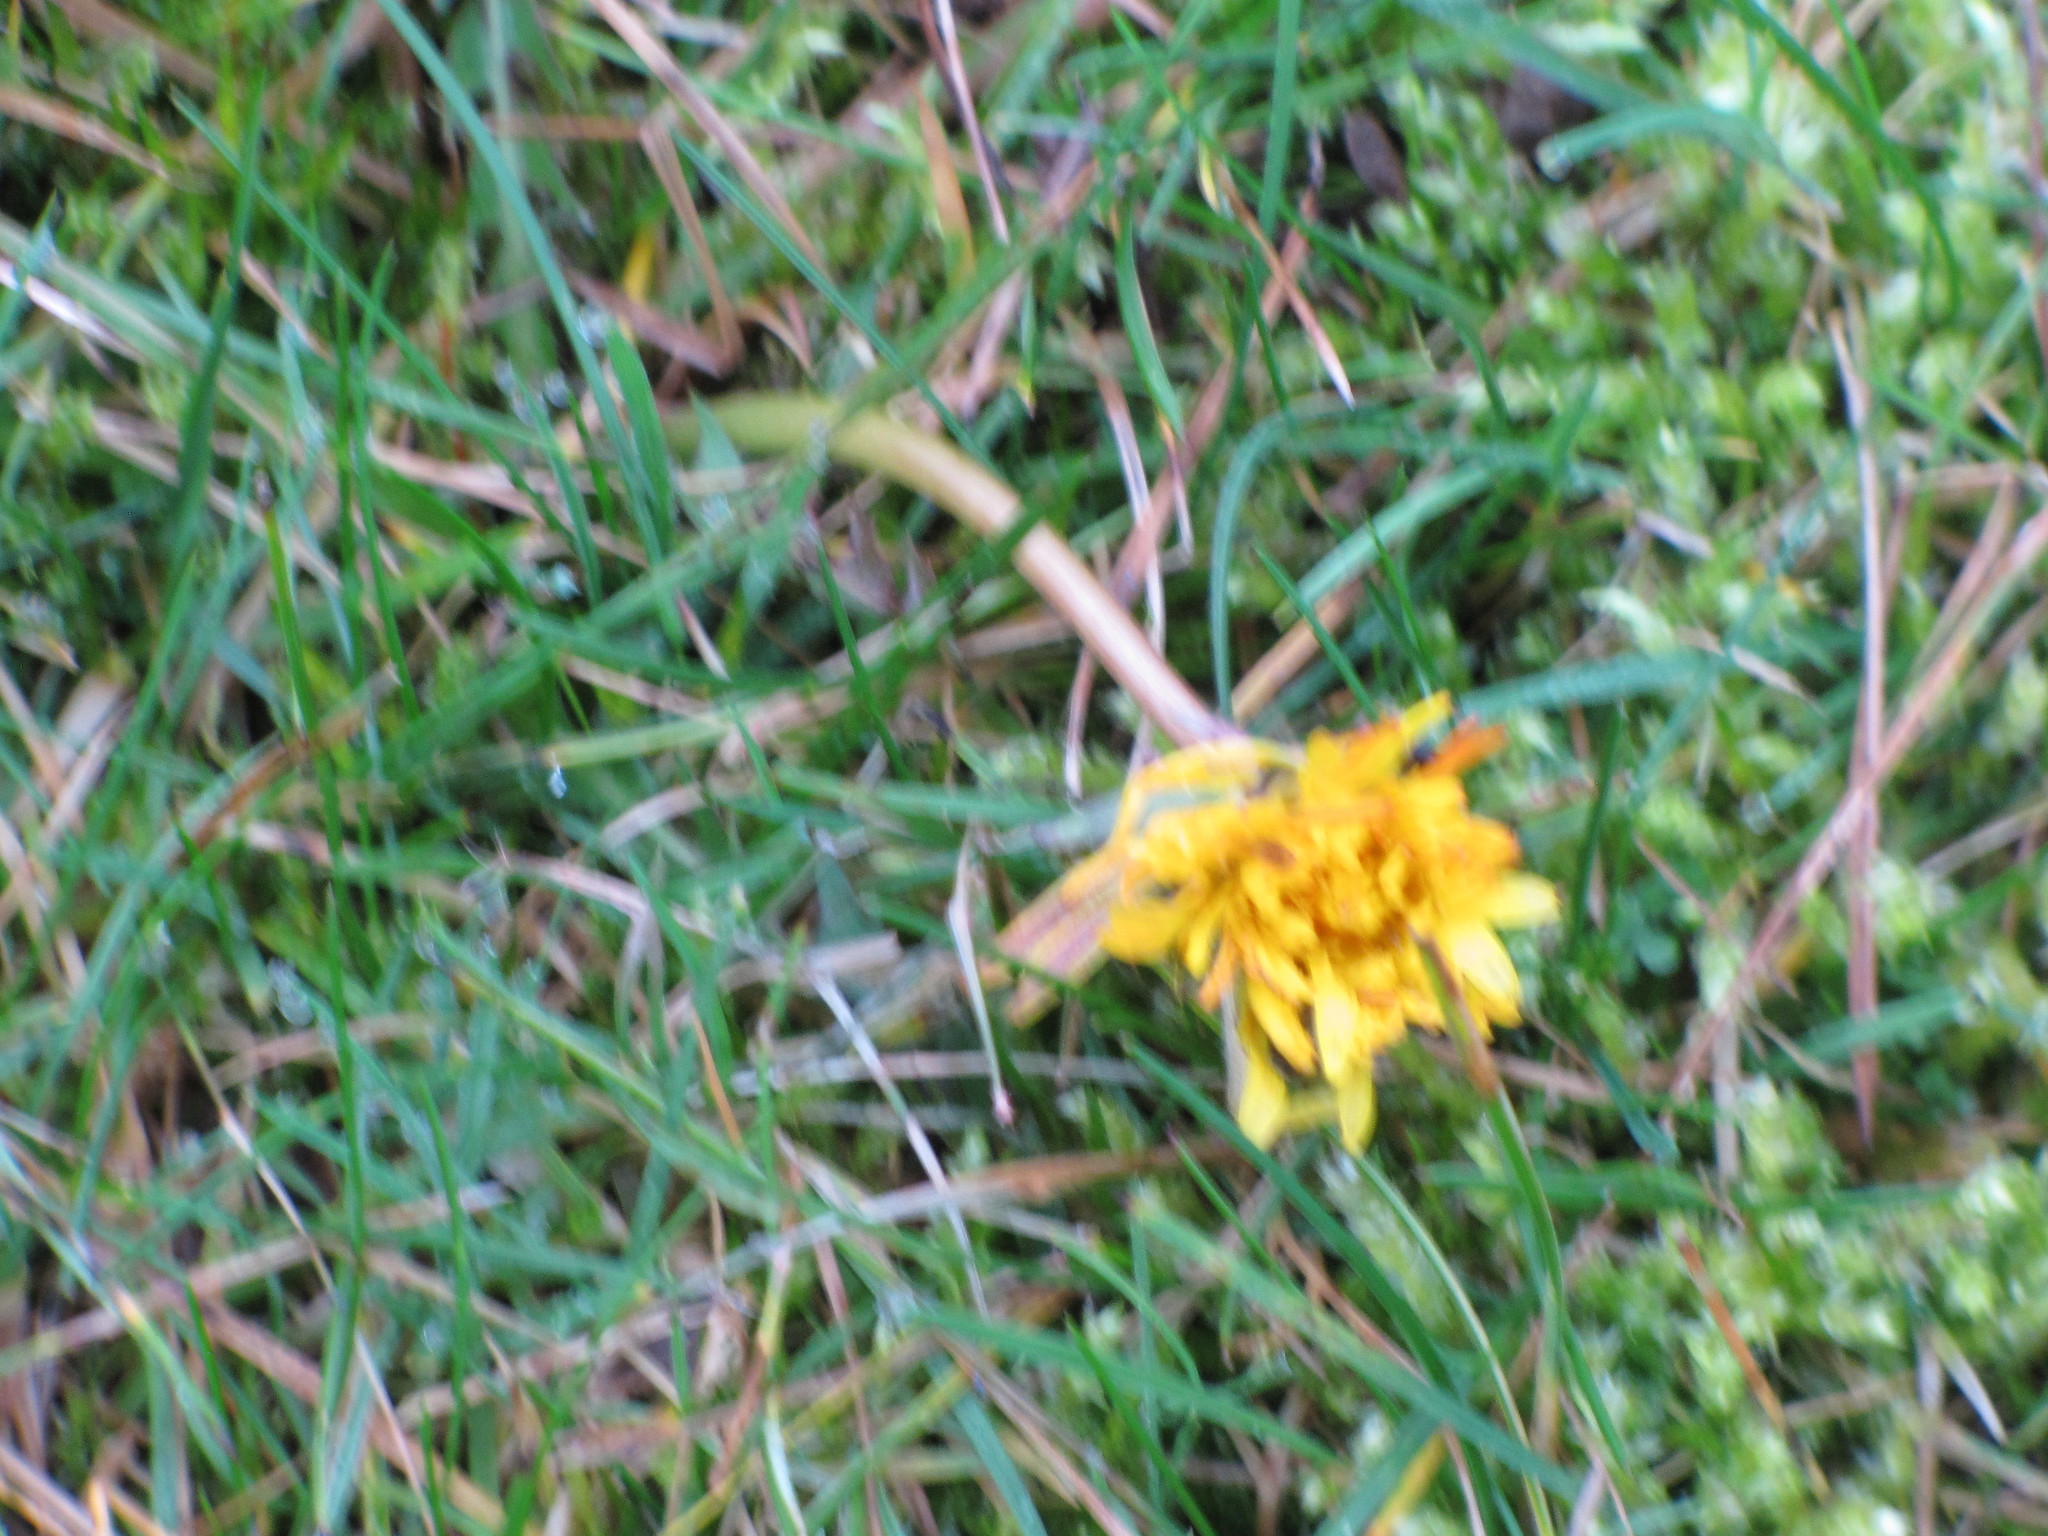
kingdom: Plantae
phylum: Tracheophyta
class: Magnoliopsida
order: Asterales
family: Asteraceae
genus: Taraxacum
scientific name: Taraxacum officinale
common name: Common dandelion
